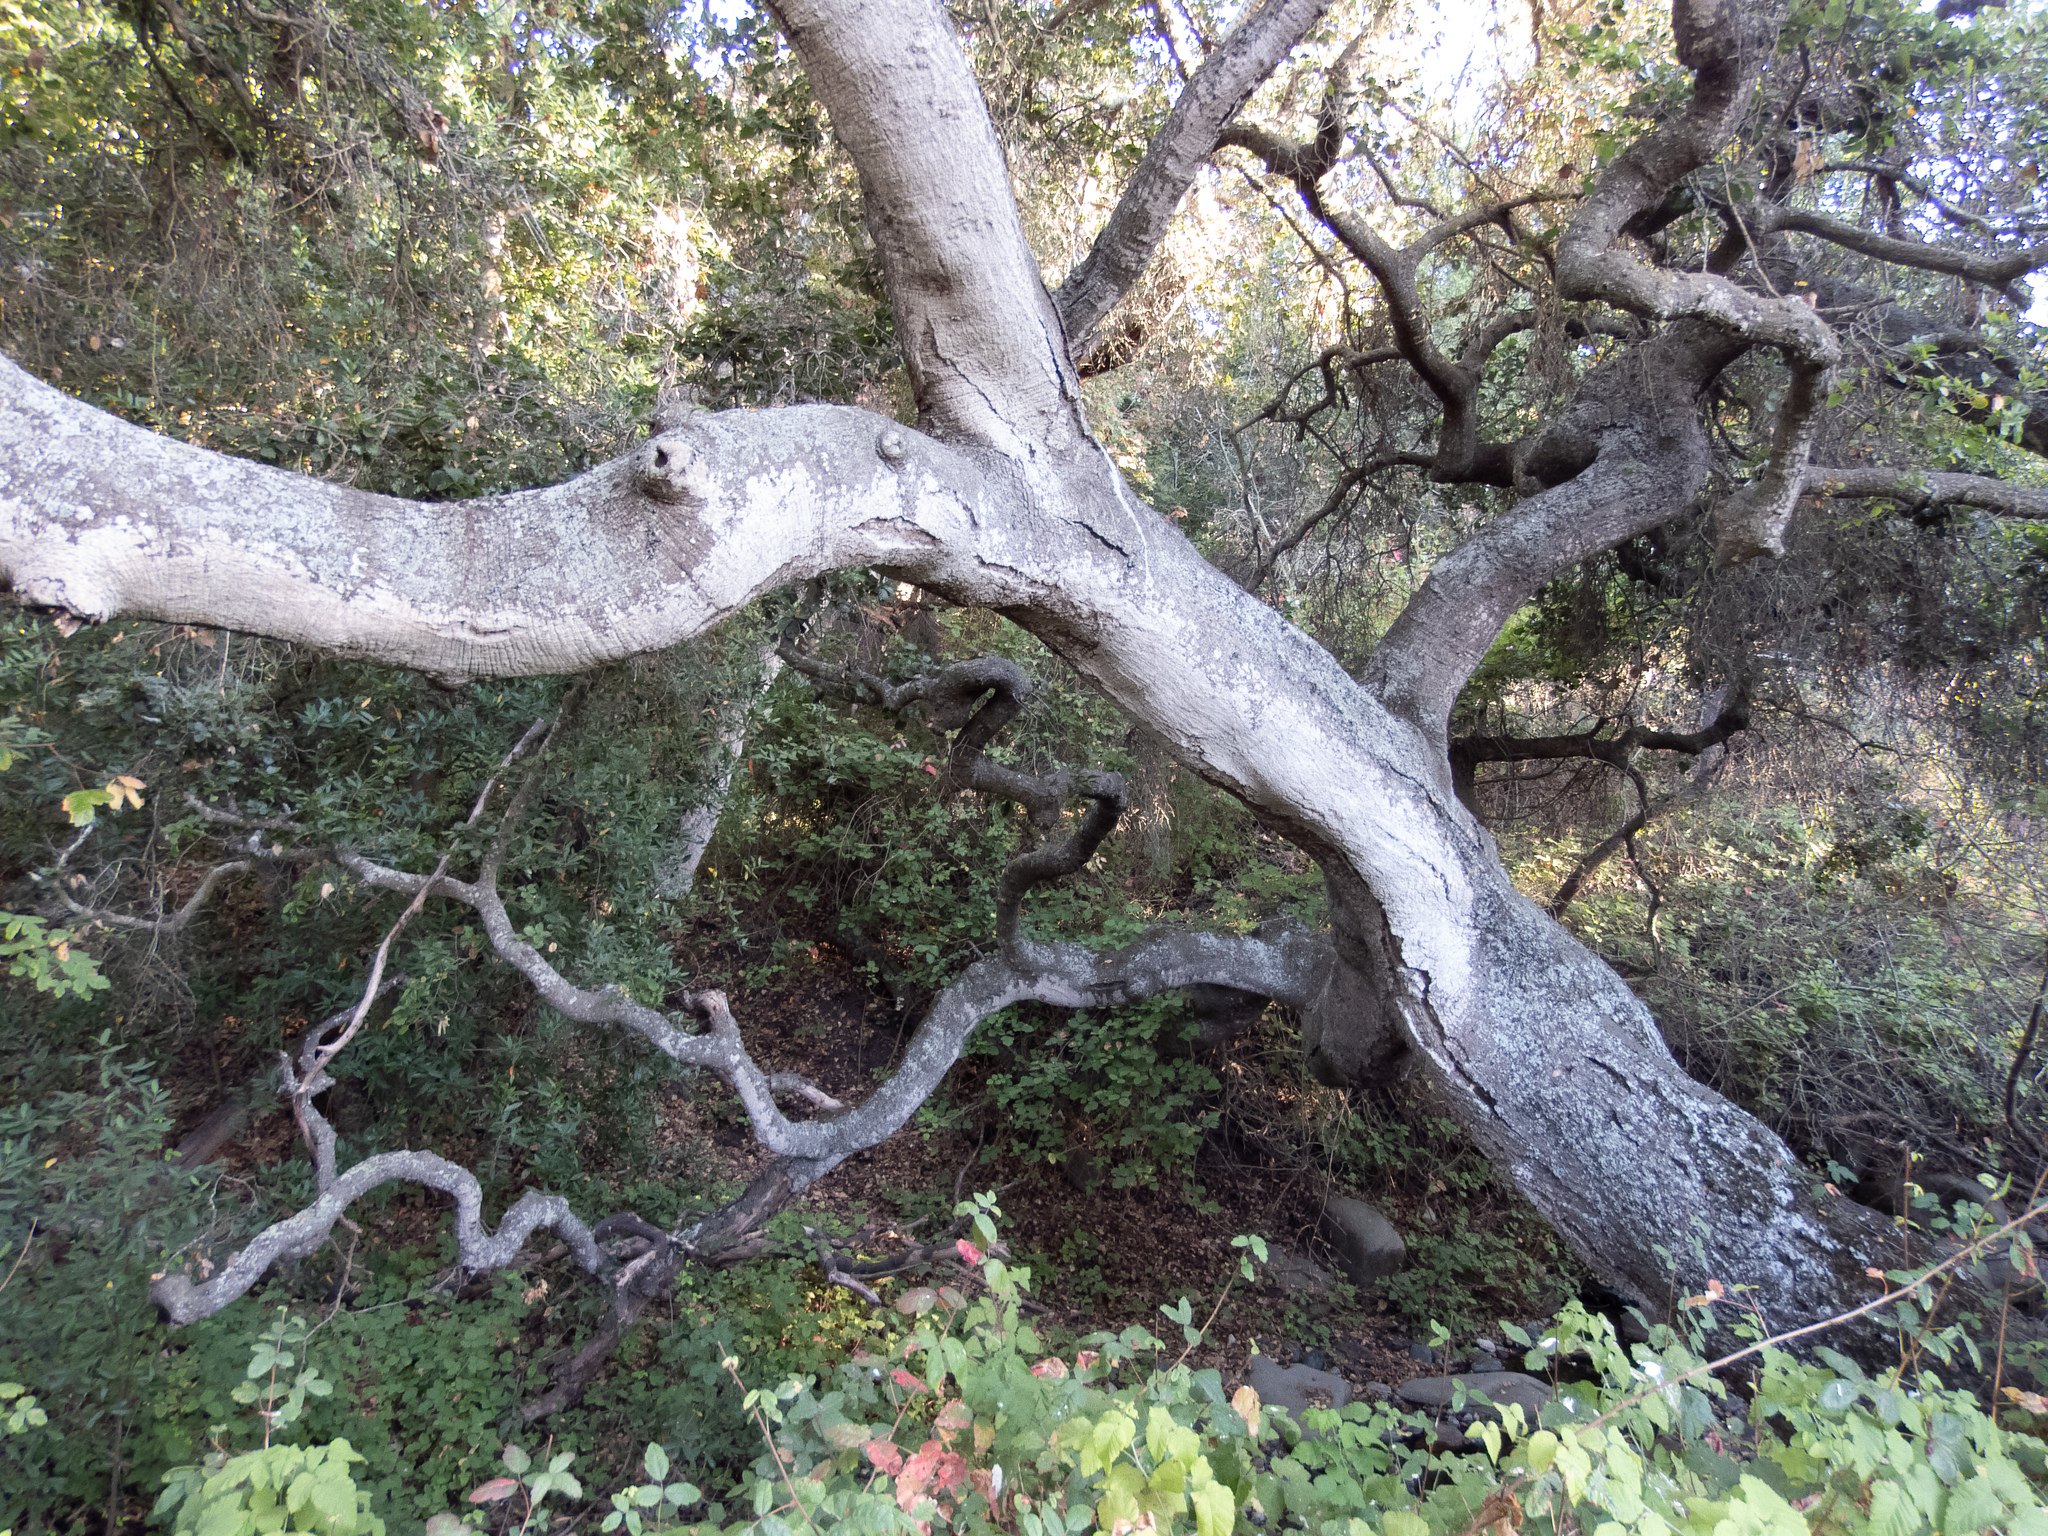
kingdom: Plantae
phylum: Tracheophyta
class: Magnoliopsida
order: Fagales
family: Fagaceae
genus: Quercus
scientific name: Quercus agrifolia
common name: California live oak
